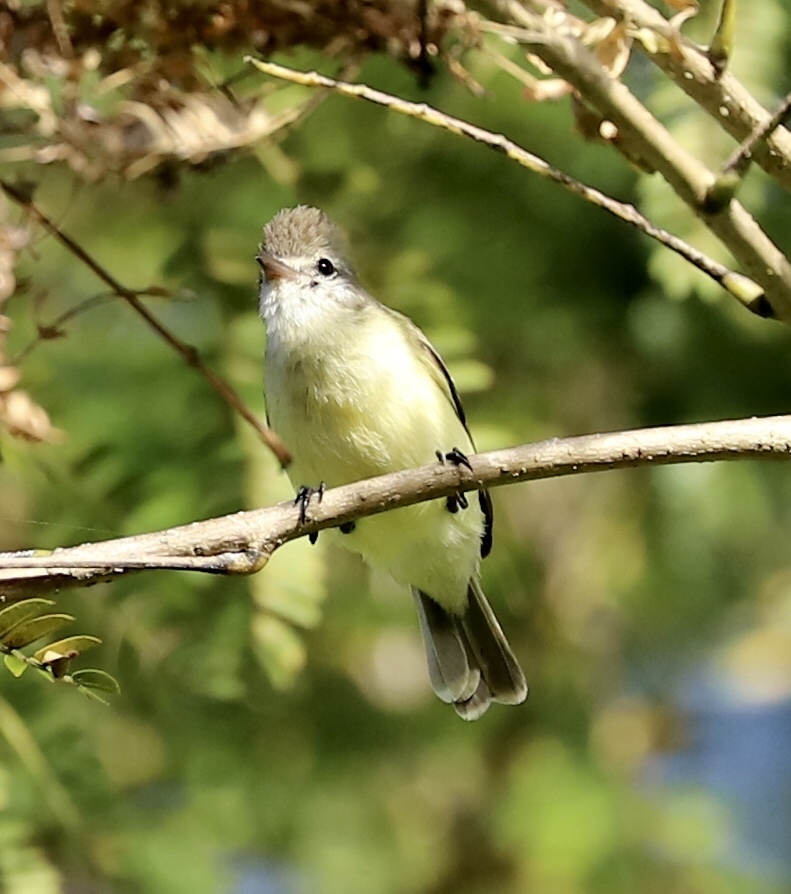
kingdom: Animalia
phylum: Chordata
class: Aves
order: Passeriformes
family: Tyrannidae
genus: Camptostoma
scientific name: Camptostoma obsoletum
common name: Southern beardless-tyrannulet
